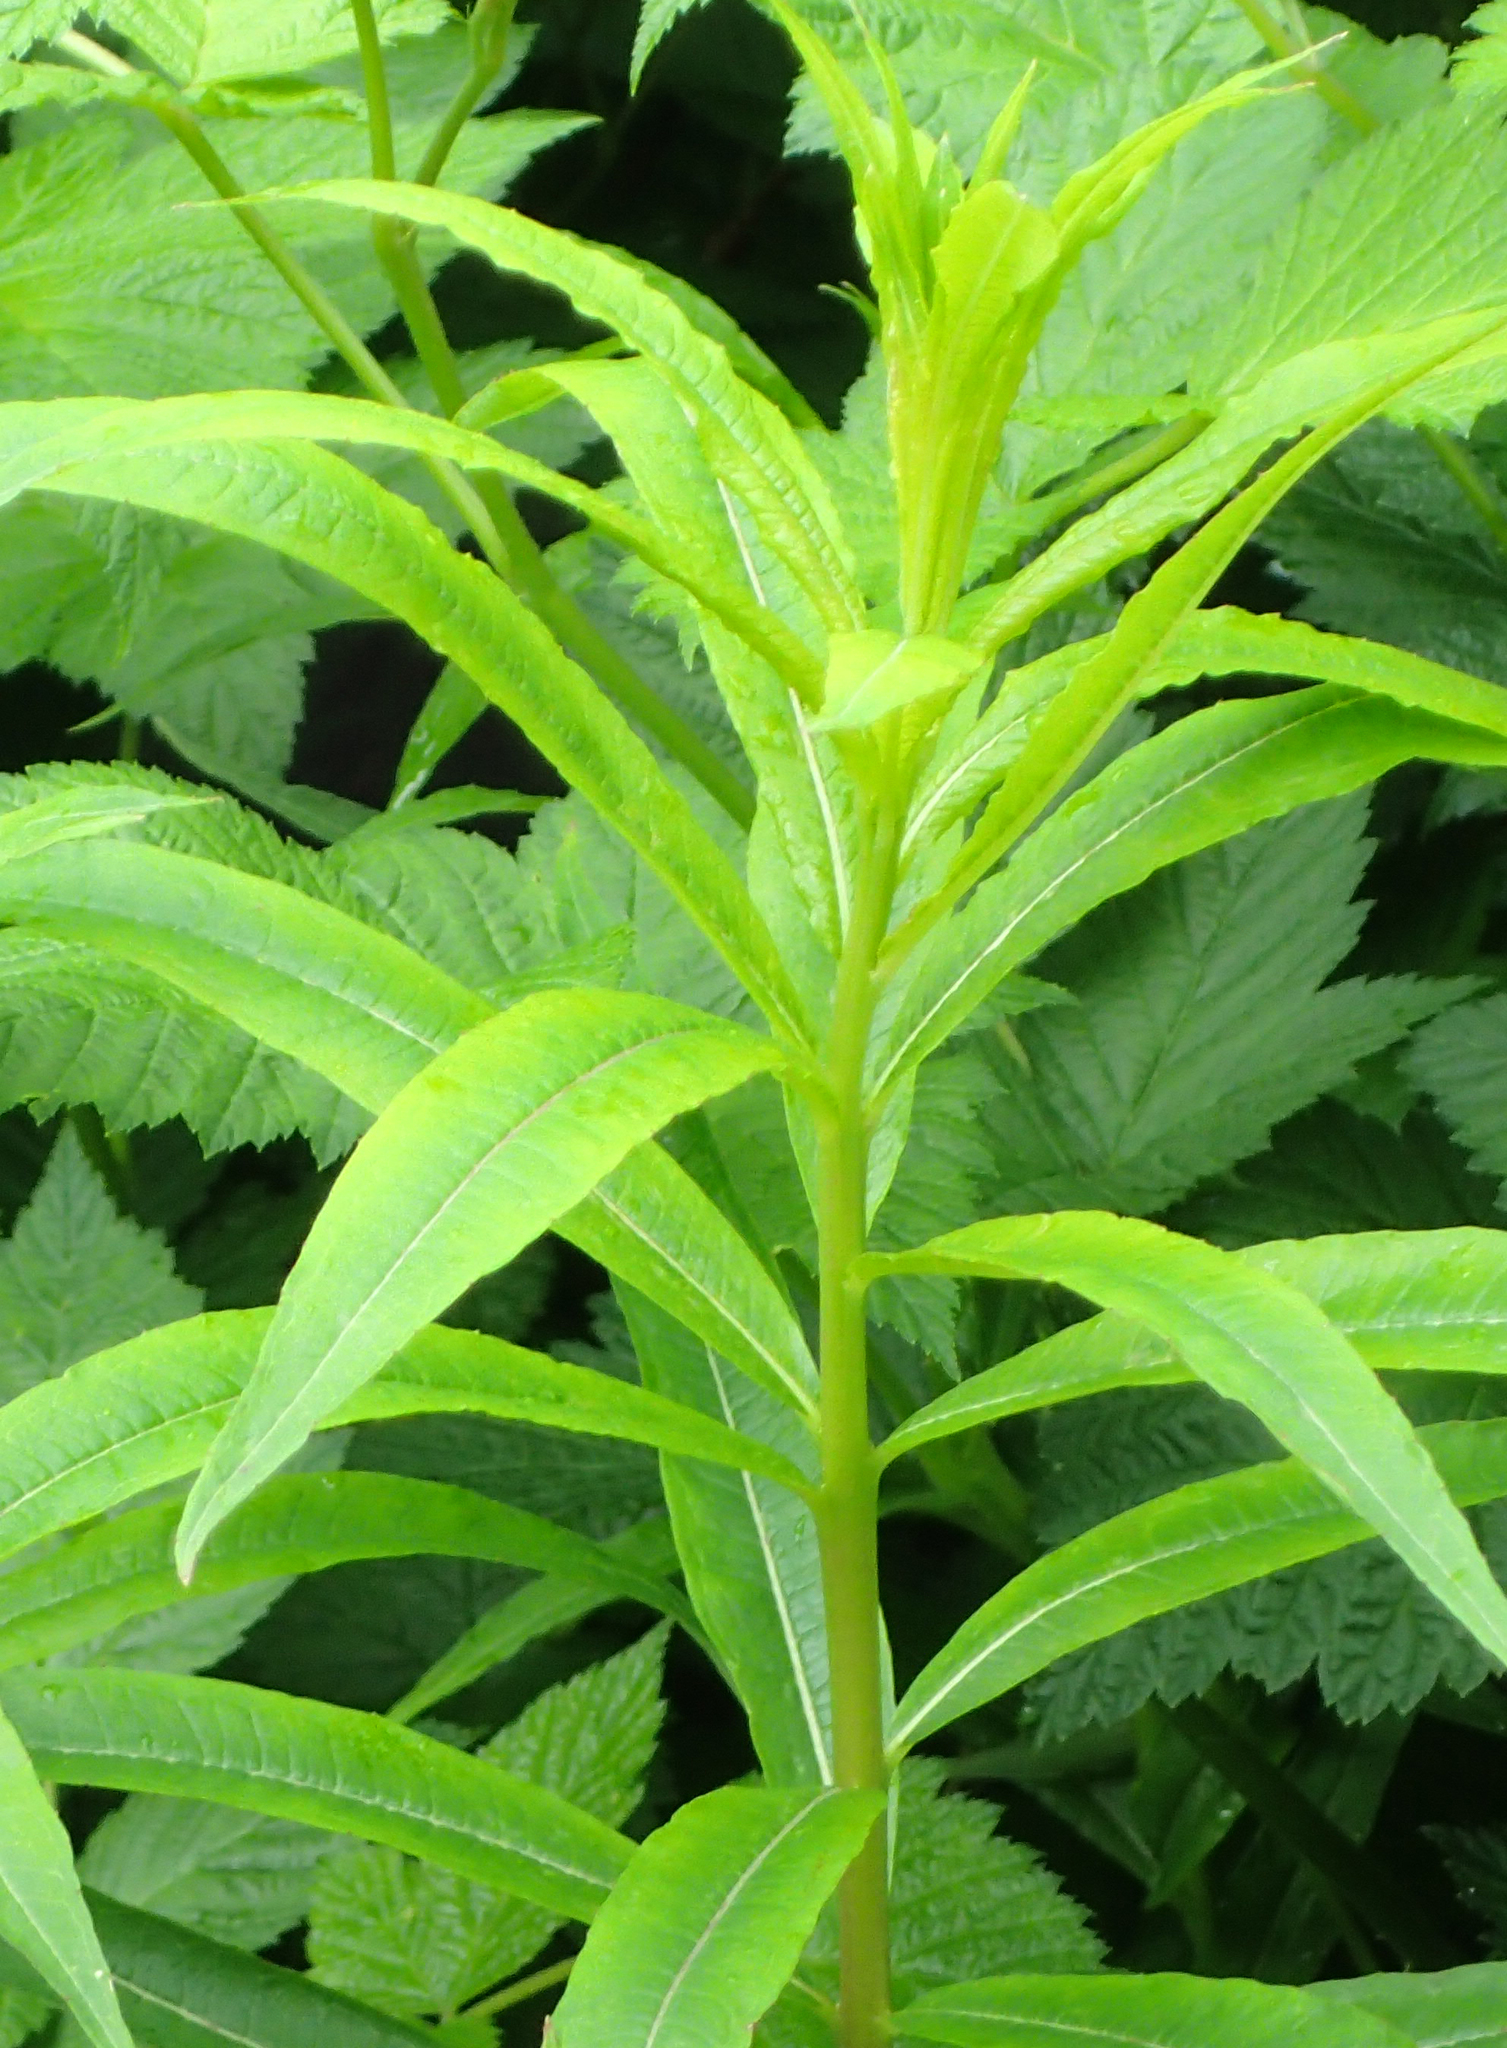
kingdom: Plantae
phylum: Tracheophyta
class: Magnoliopsida
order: Myrtales
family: Onagraceae
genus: Chamaenerion
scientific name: Chamaenerion angustifolium
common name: Fireweed
